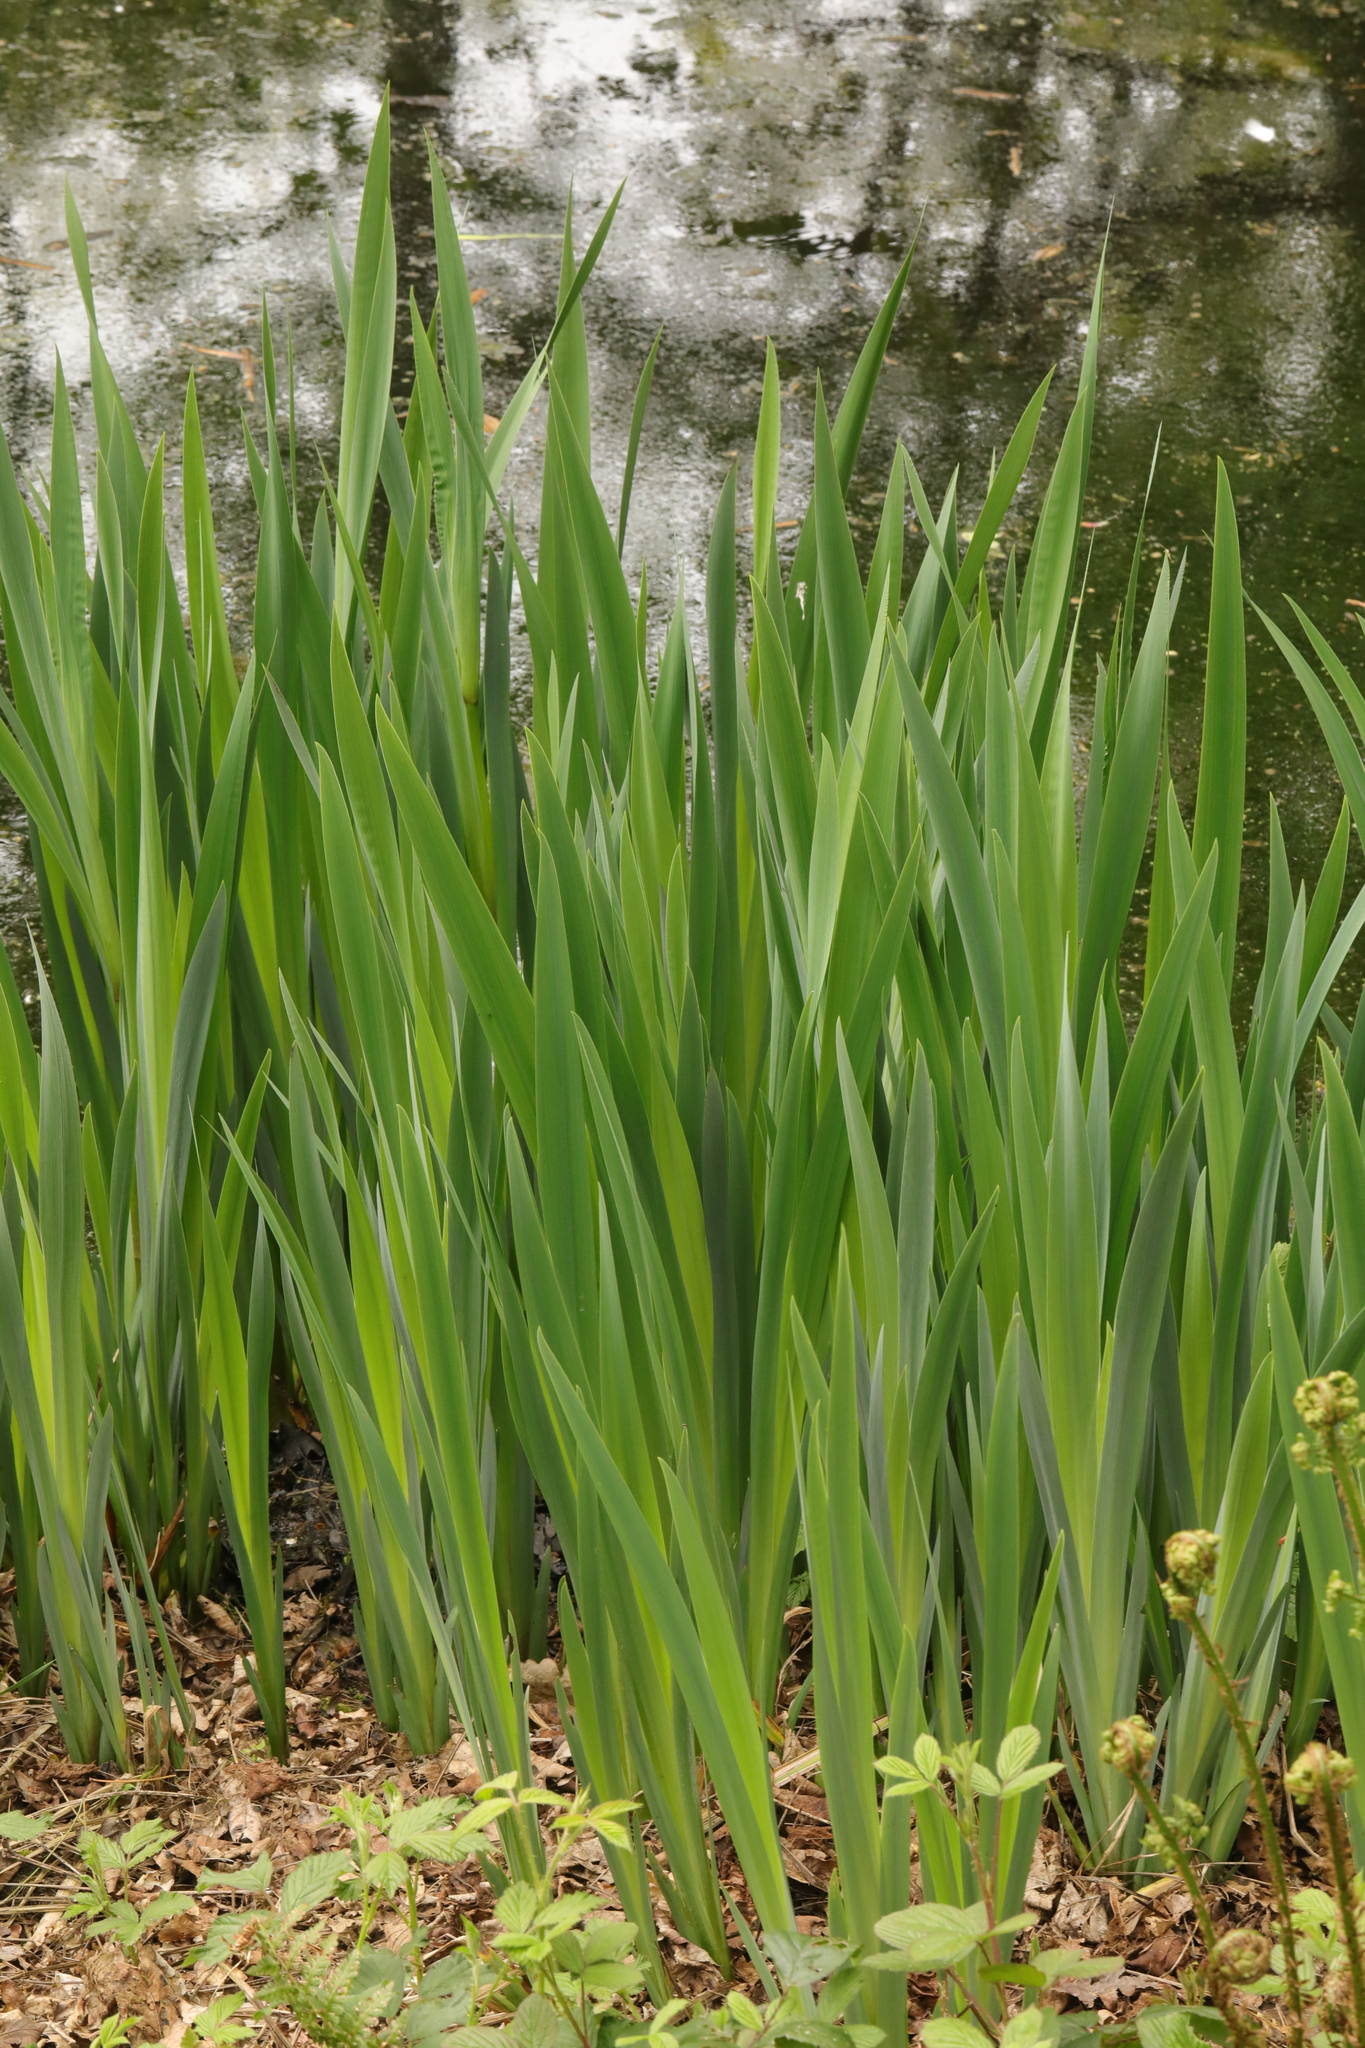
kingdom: Plantae
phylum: Tracheophyta
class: Liliopsida
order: Asparagales
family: Iridaceae
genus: Iris
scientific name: Iris pseudacorus
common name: Yellow flag
